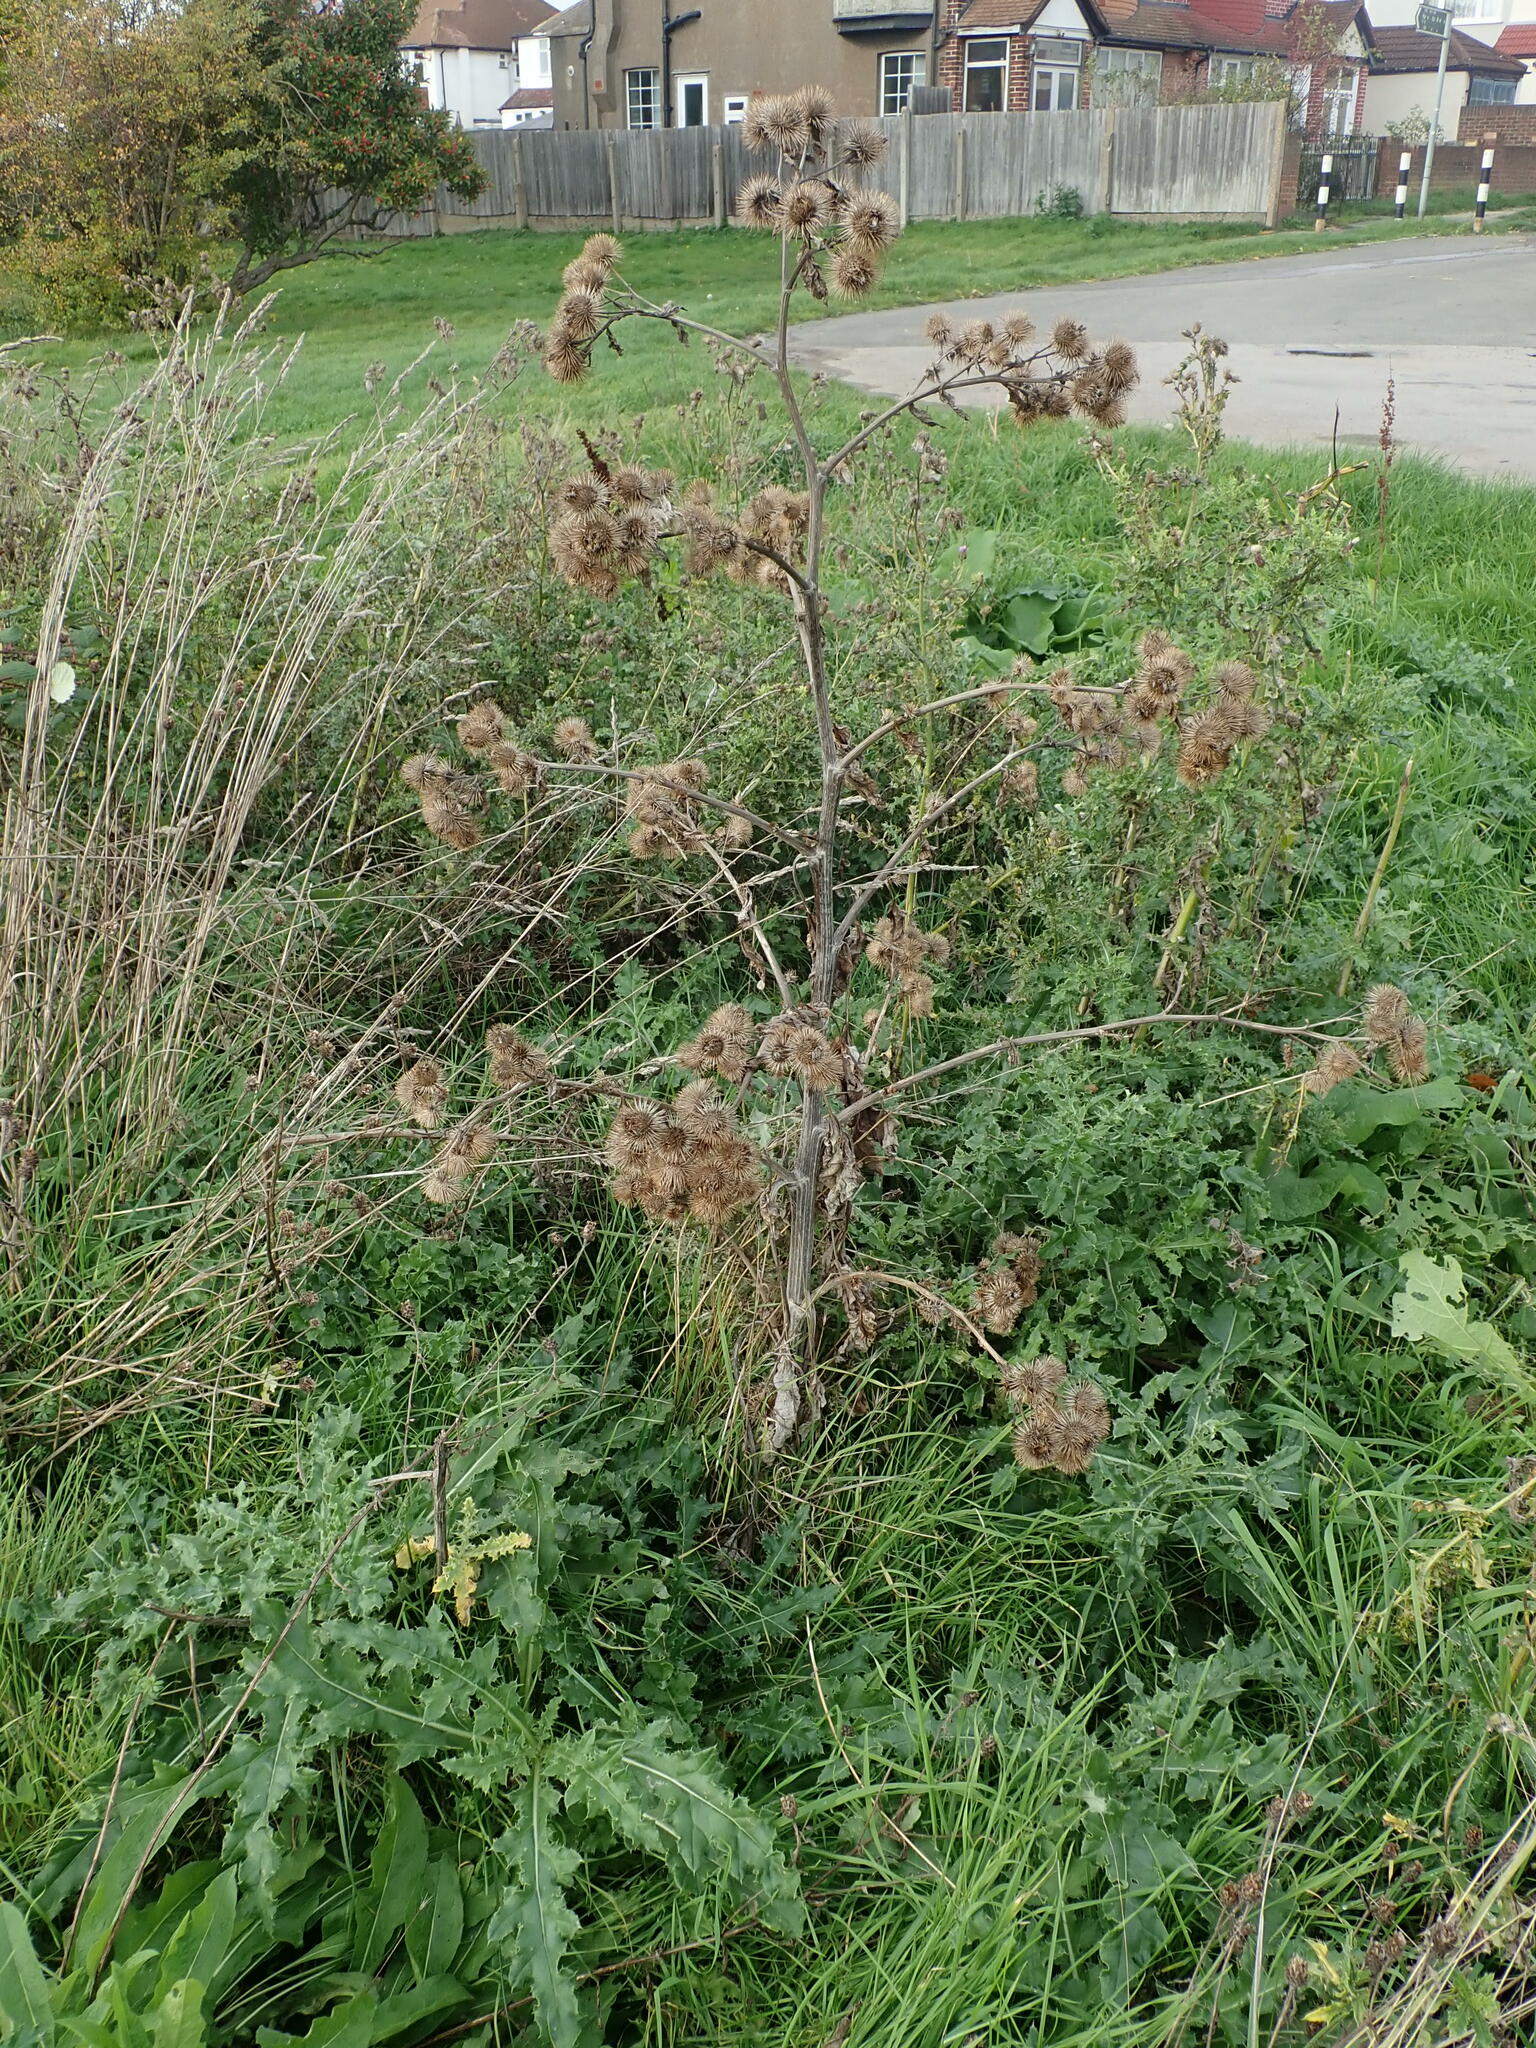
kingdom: Plantae
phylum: Tracheophyta
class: Magnoliopsida
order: Asterales
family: Asteraceae
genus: Arctium
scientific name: Arctium lappa
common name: Greater burdock
